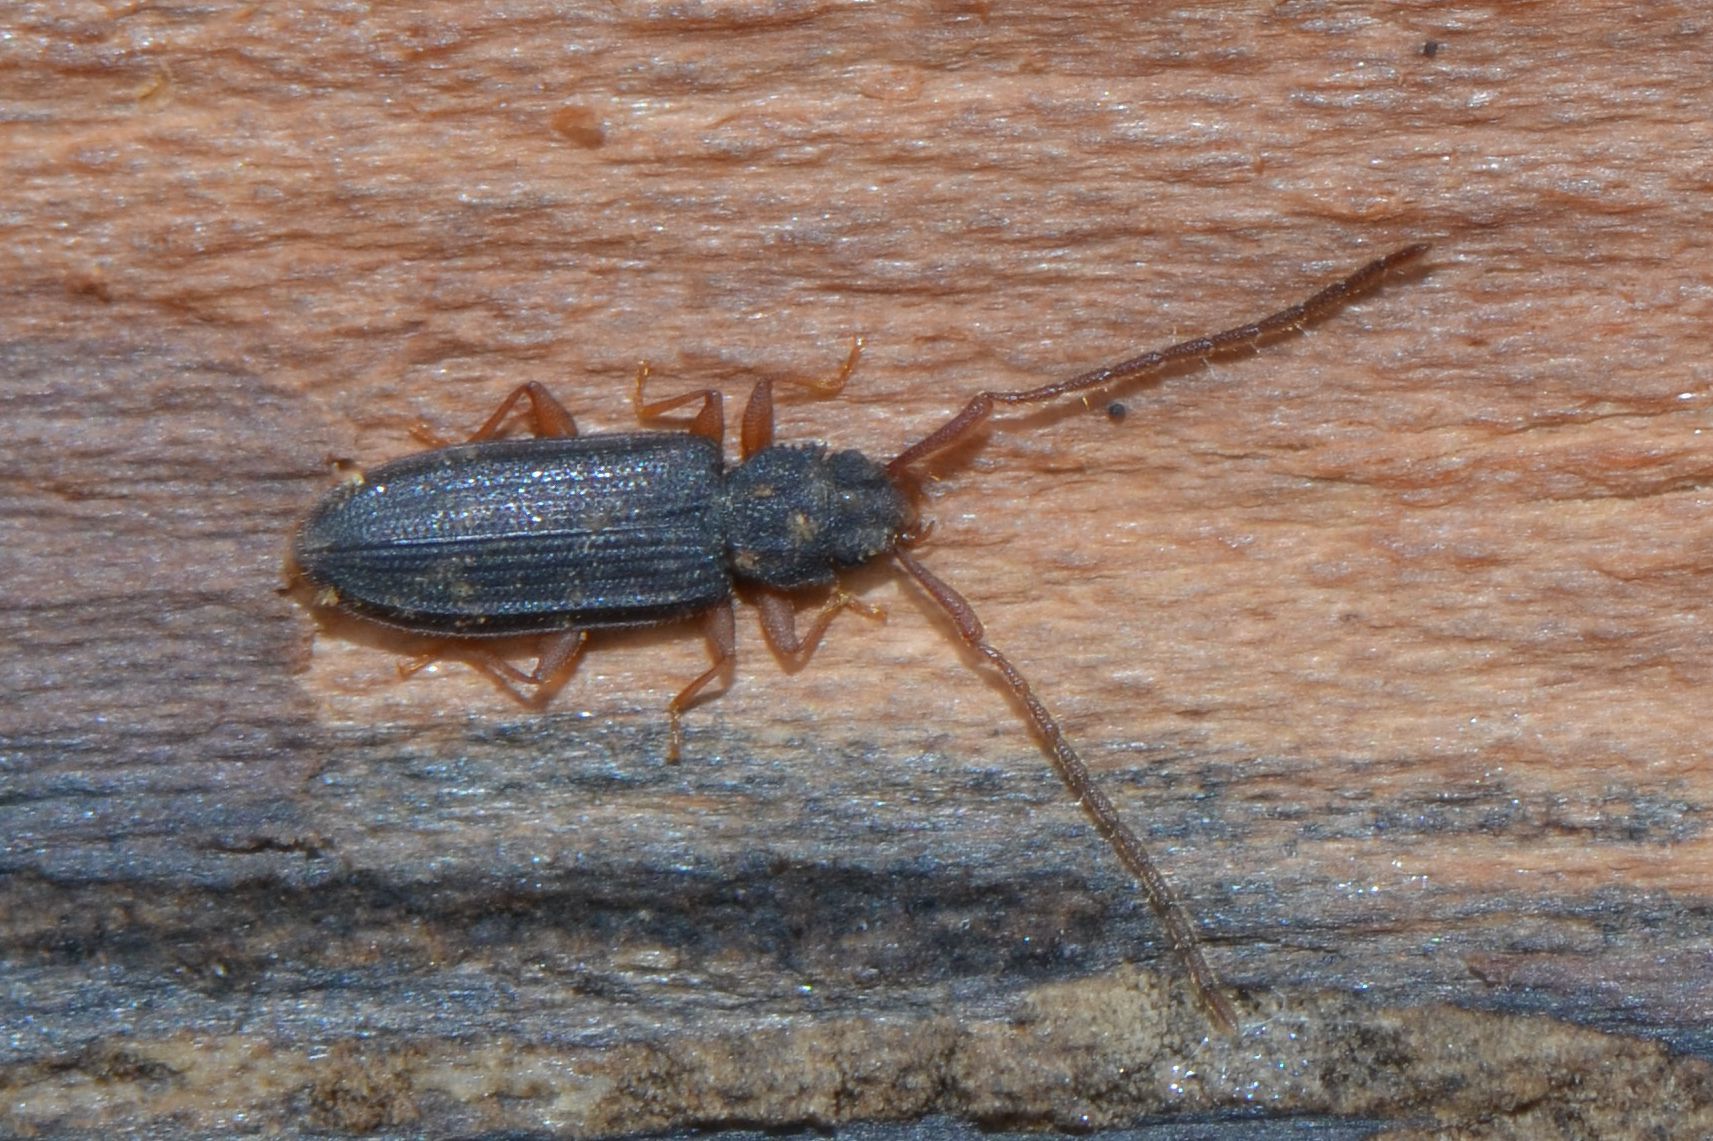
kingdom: Animalia
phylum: Arthropoda
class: Insecta
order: Coleoptera
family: Silvanidae
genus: Uleiota
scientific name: Uleiota planatus
